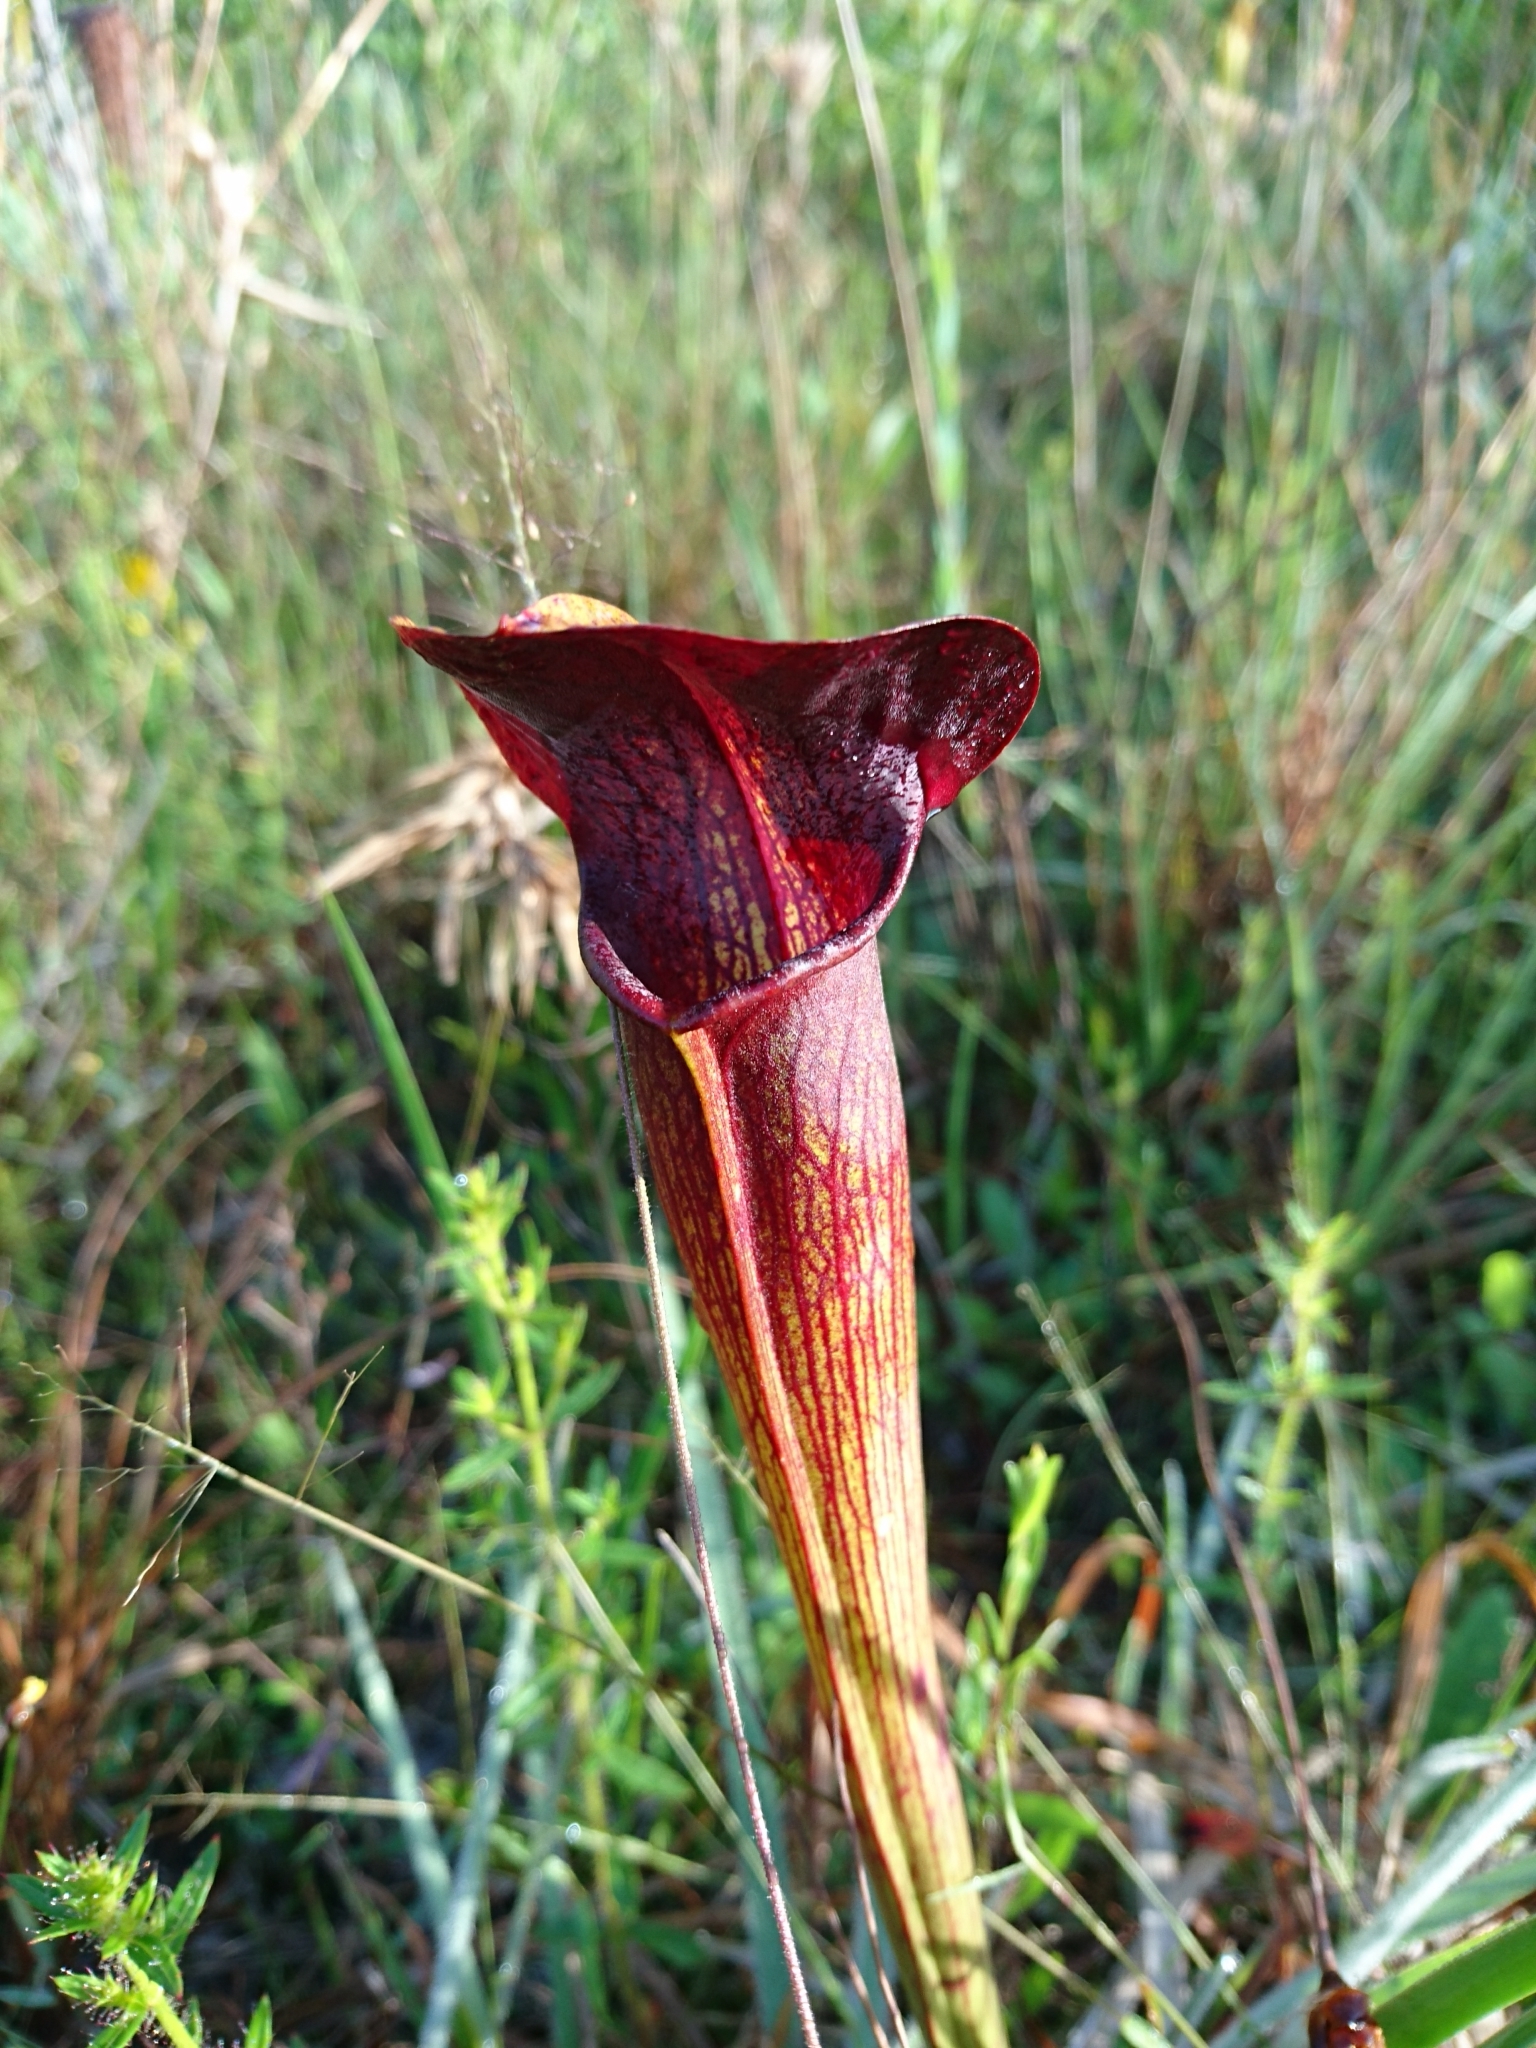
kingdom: Plantae
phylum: Tracheophyta
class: Magnoliopsida
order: Ericales
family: Sarraceniaceae
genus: Sarracenia
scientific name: Sarracenia alata
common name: Yellow trumpets
